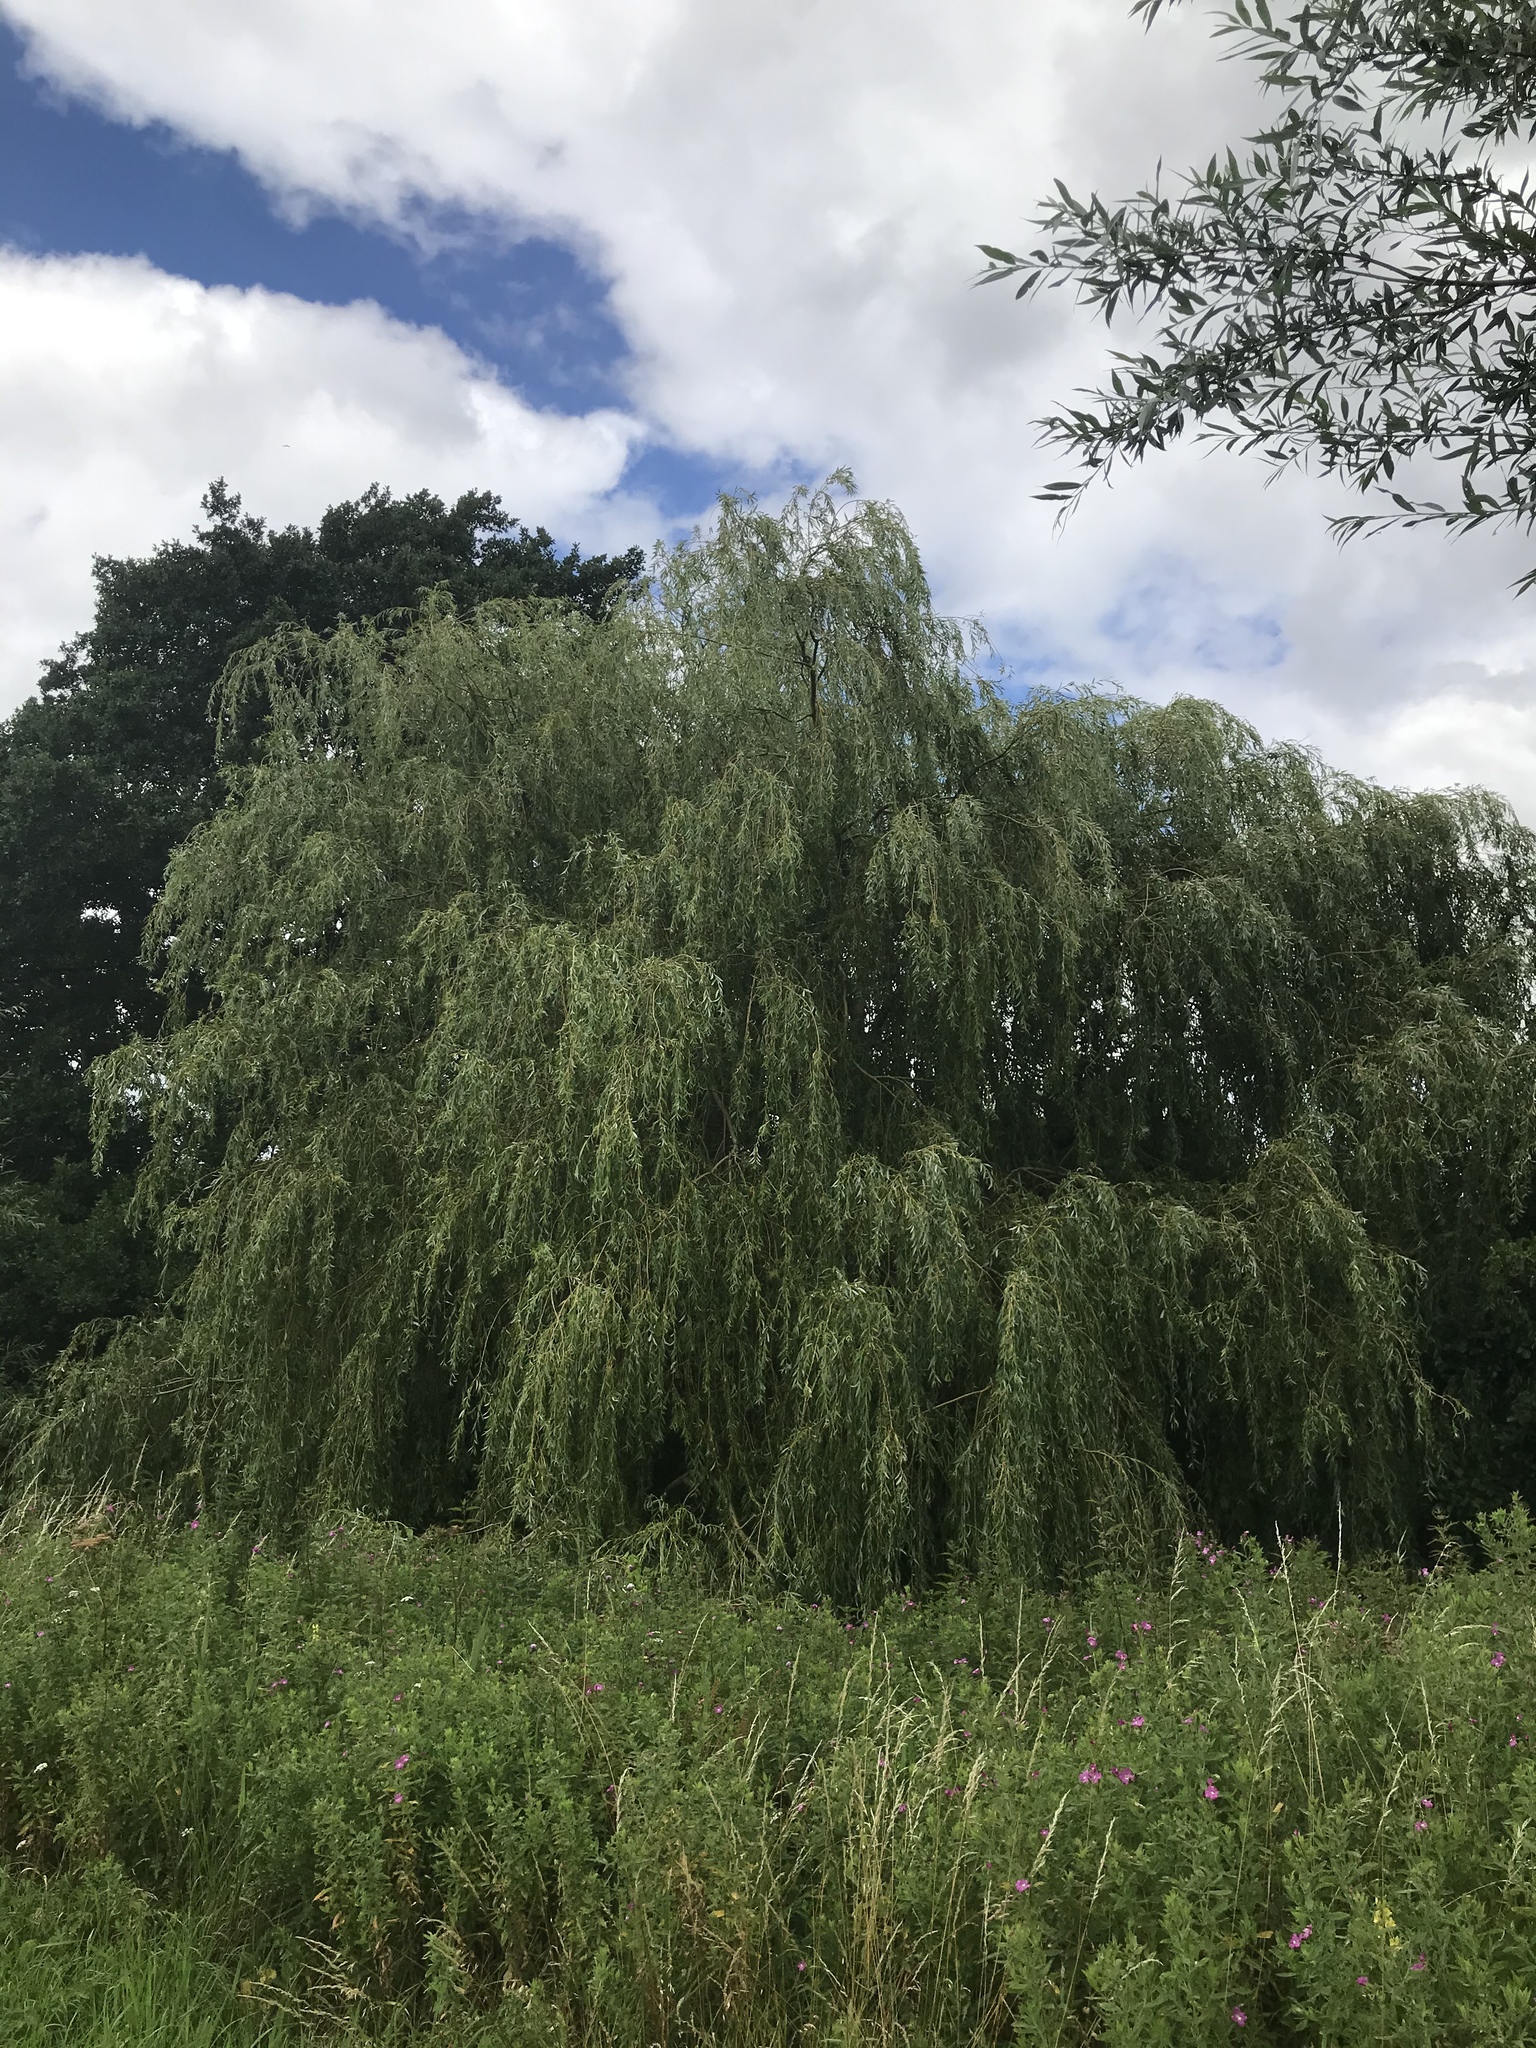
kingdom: Plantae
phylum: Tracheophyta
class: Magnoliopsida
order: Malpighiales
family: Salicaceae
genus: Salix
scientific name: Salix pendulina
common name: Wisconsin weeping willow
